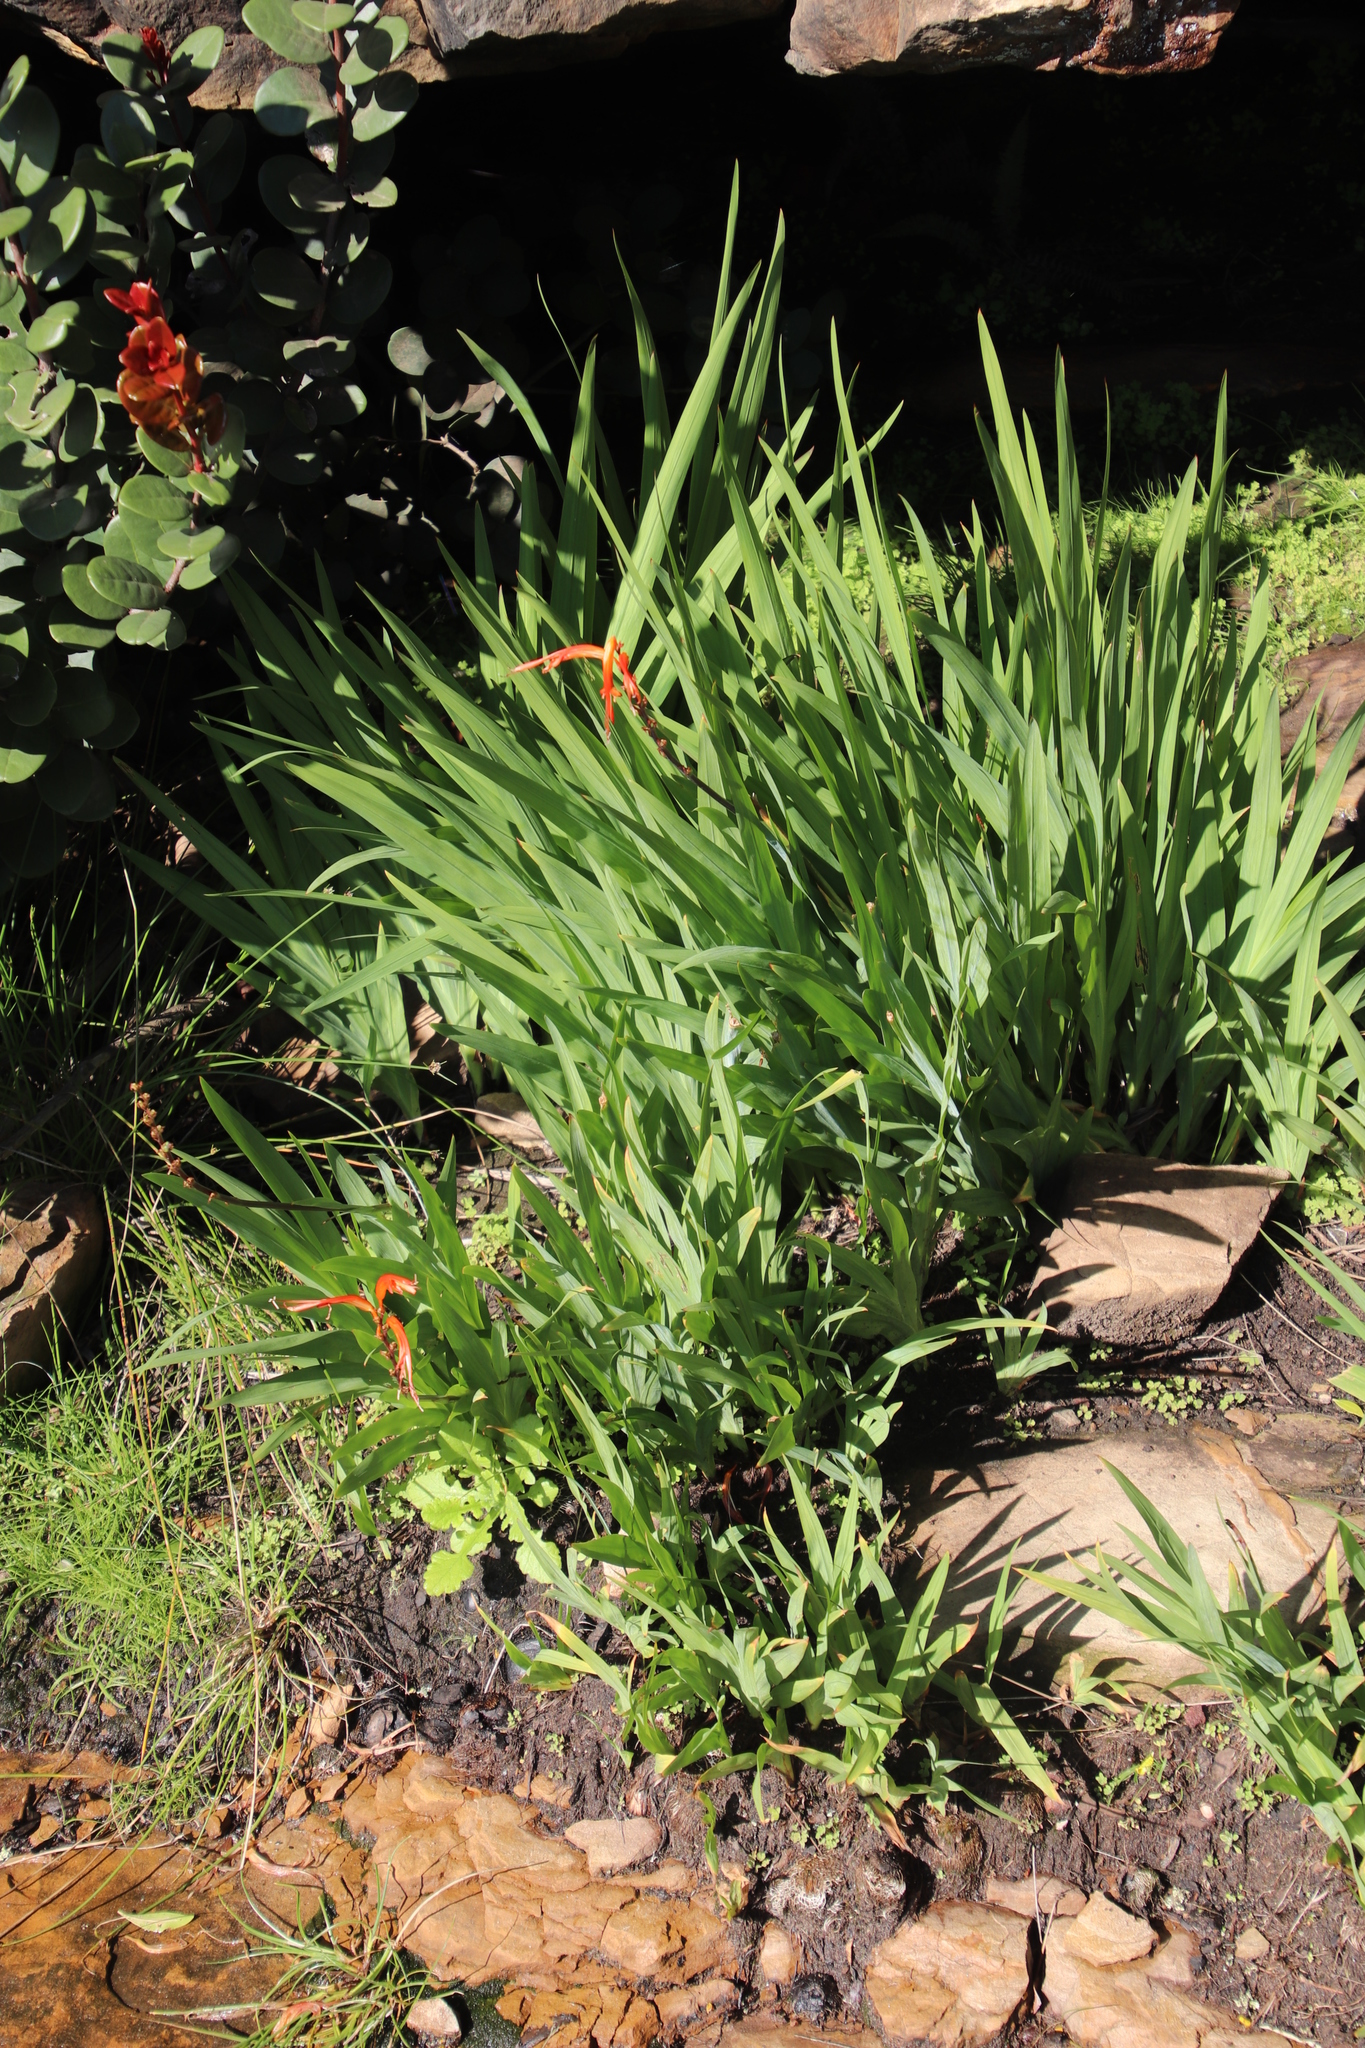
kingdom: Plantae
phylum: Tracheophyta
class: Liliopsida
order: Asparagales
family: Iridaceae
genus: Chasmanthe
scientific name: Chasmanthe floribunda
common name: African cornflag
